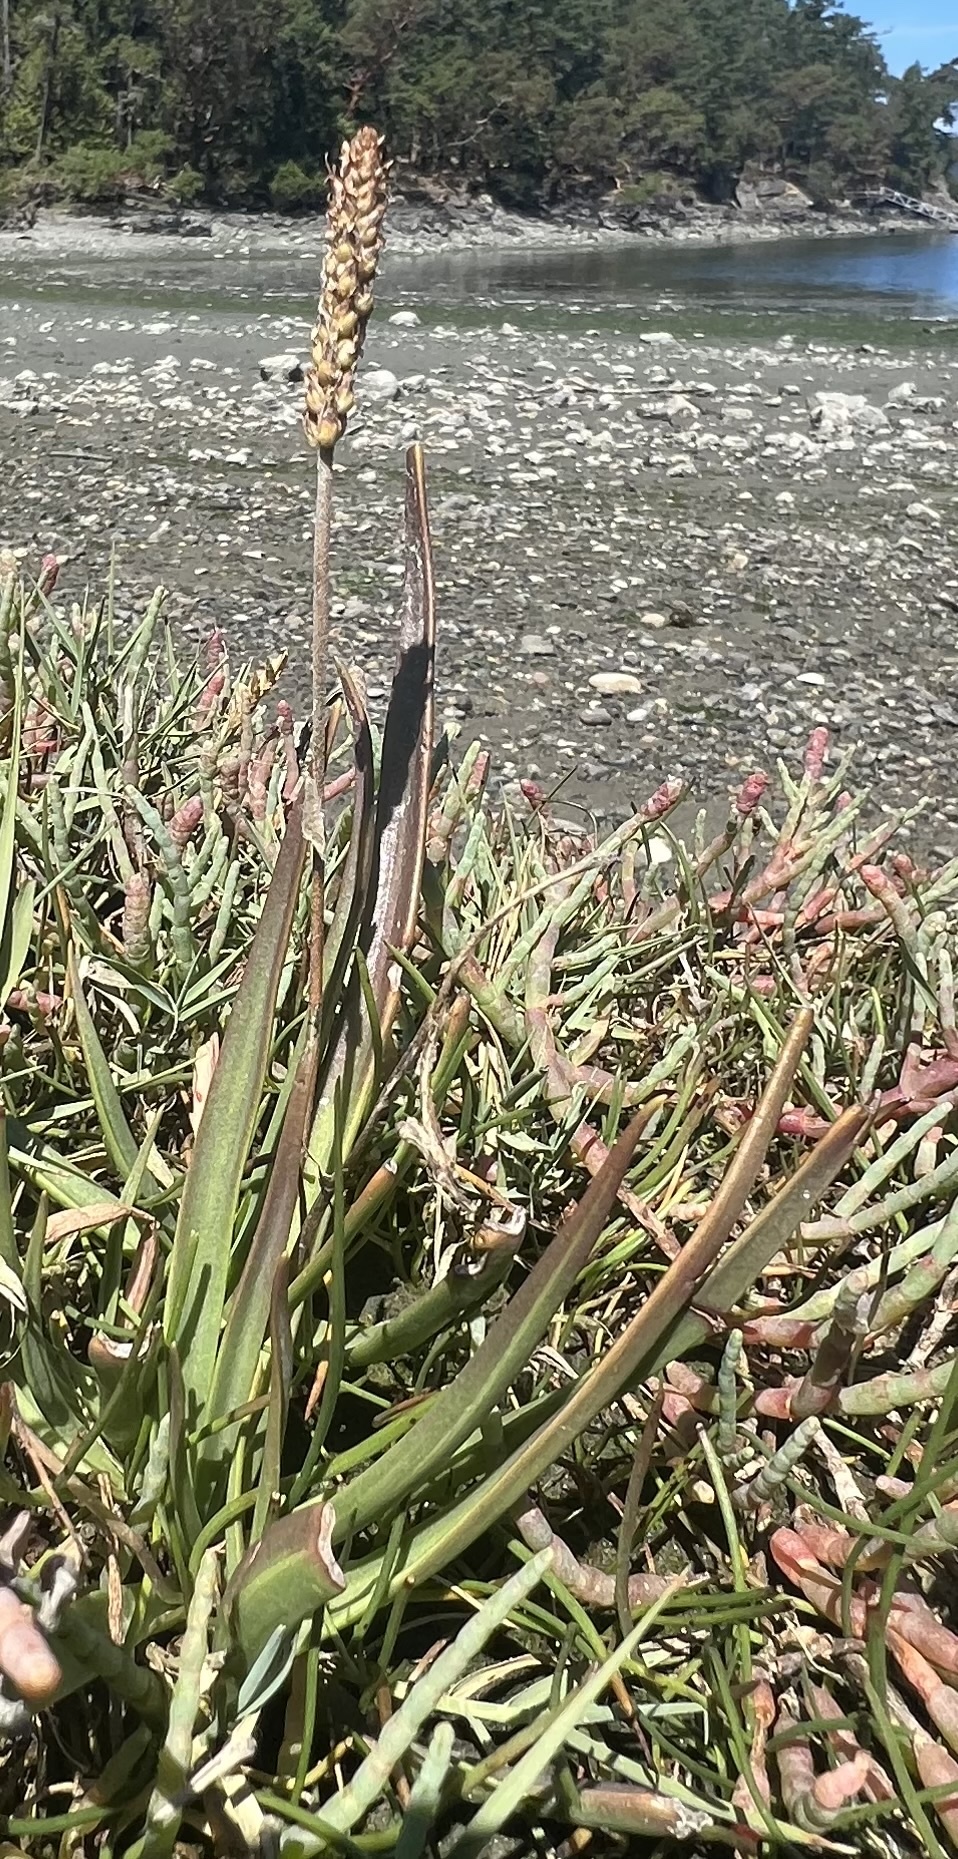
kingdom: Plantae
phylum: Tracheophyta
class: Magnoliopsida
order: Lamiales
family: Plantaginaceae
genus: Plantago
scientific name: Plantago maritima
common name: Sea plantain
